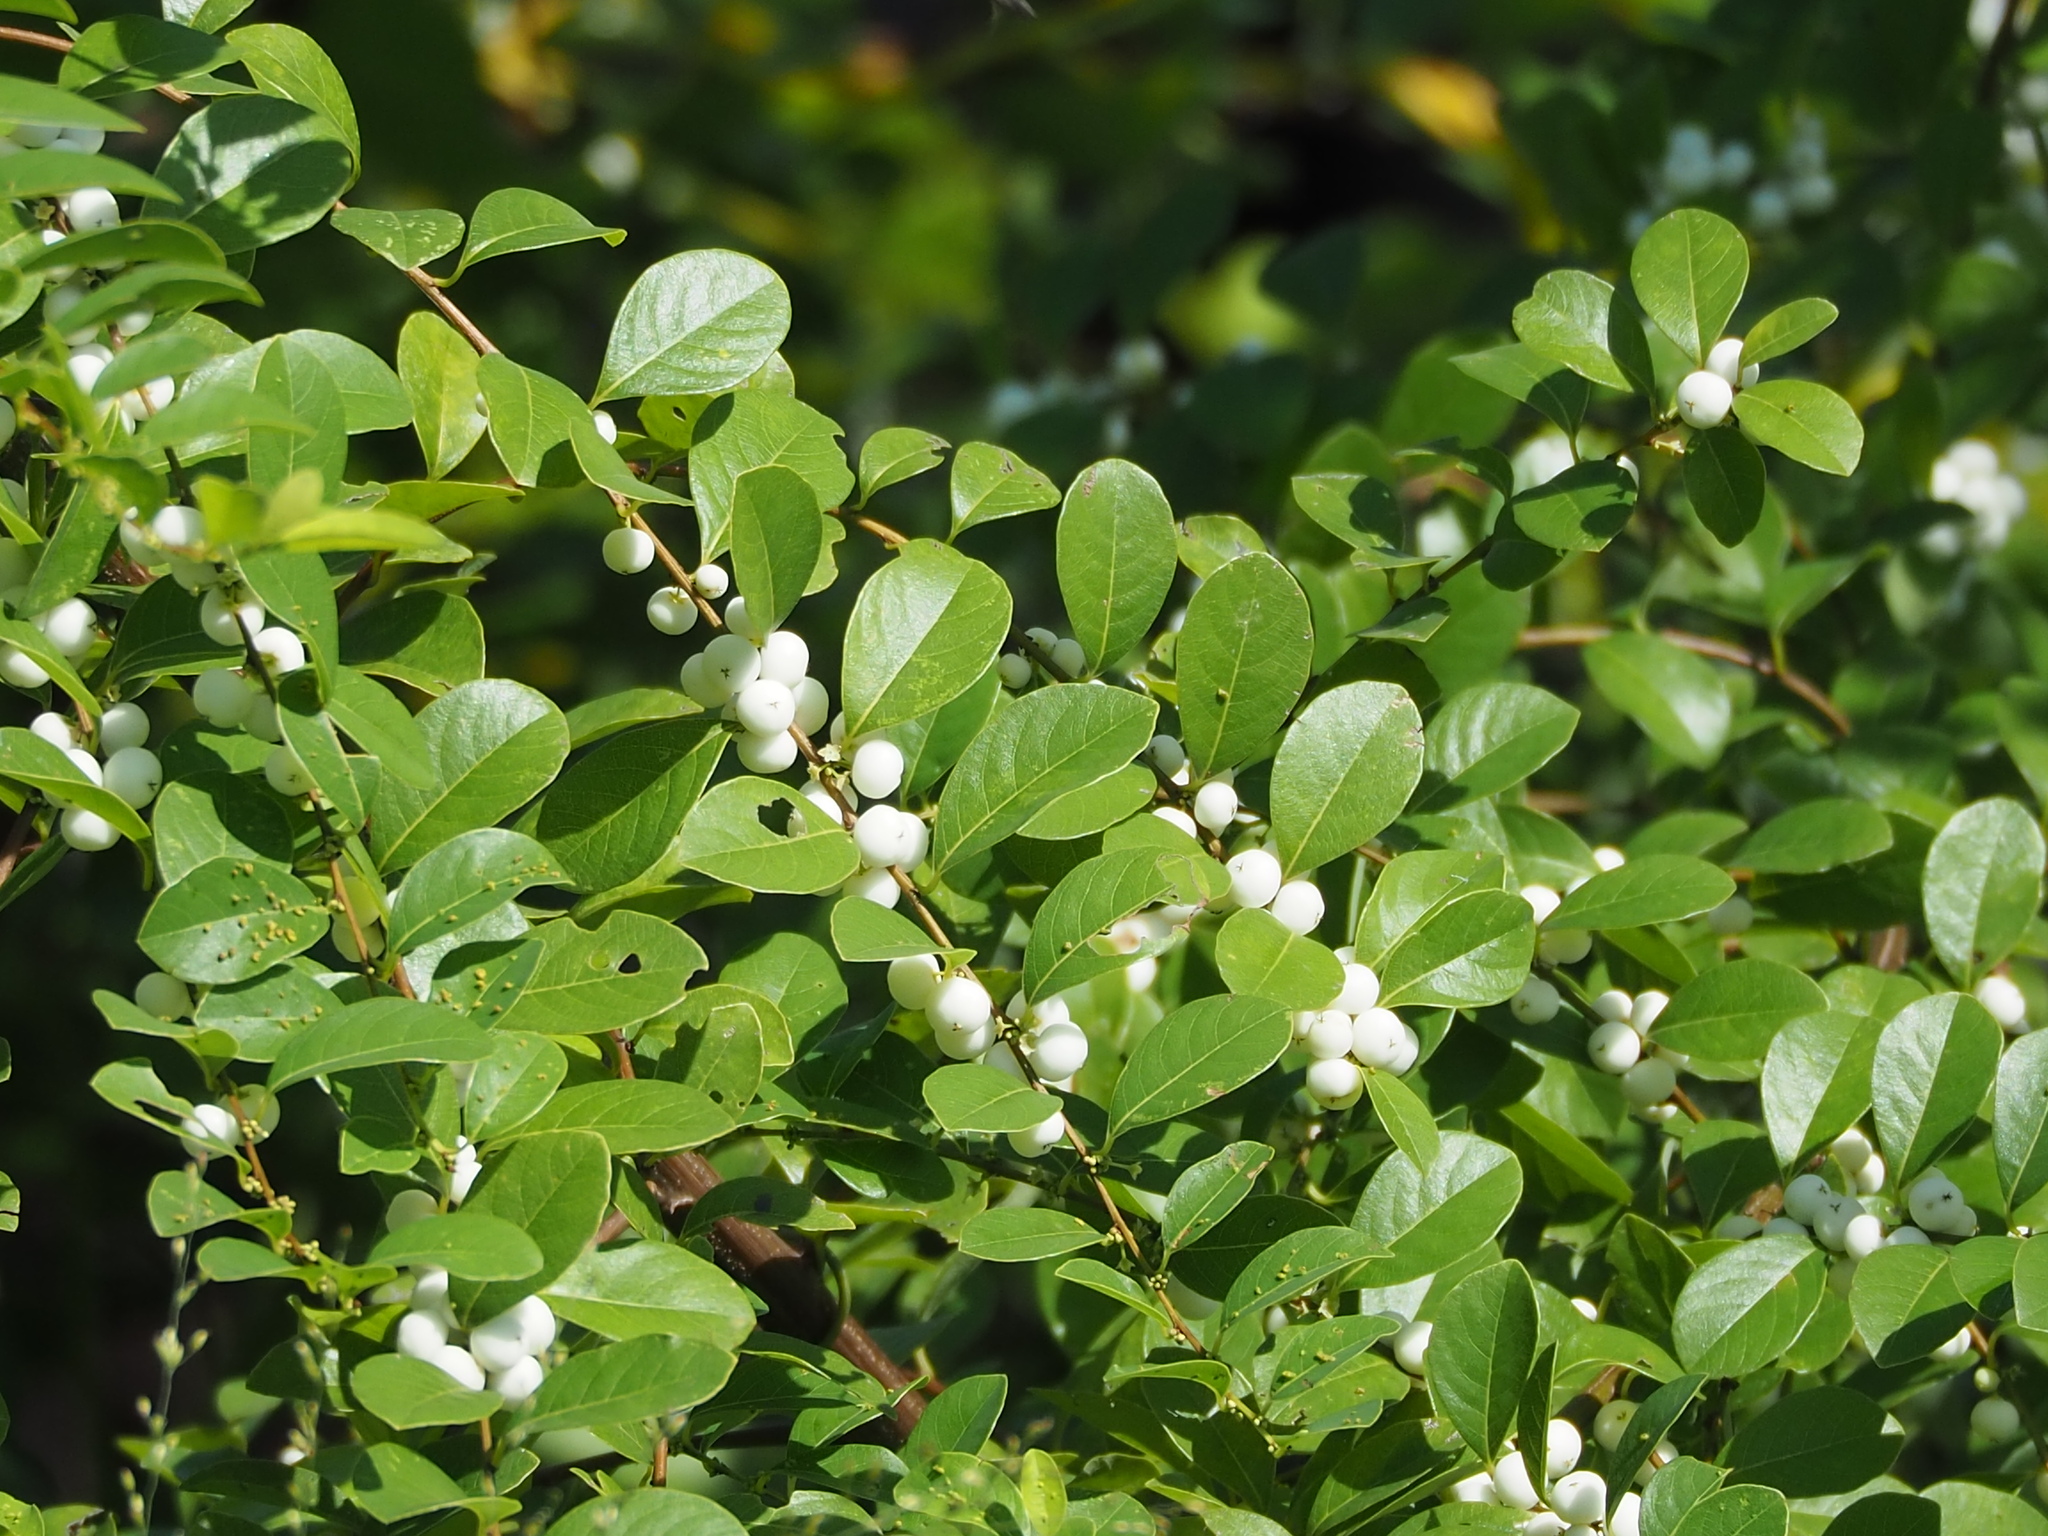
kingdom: Plantae
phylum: Tracheophyta
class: Magnoliopsida
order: Malpighiales
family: Phyllanthaceae
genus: Flueggea
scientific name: Flueggea virosa
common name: Common bushweed
